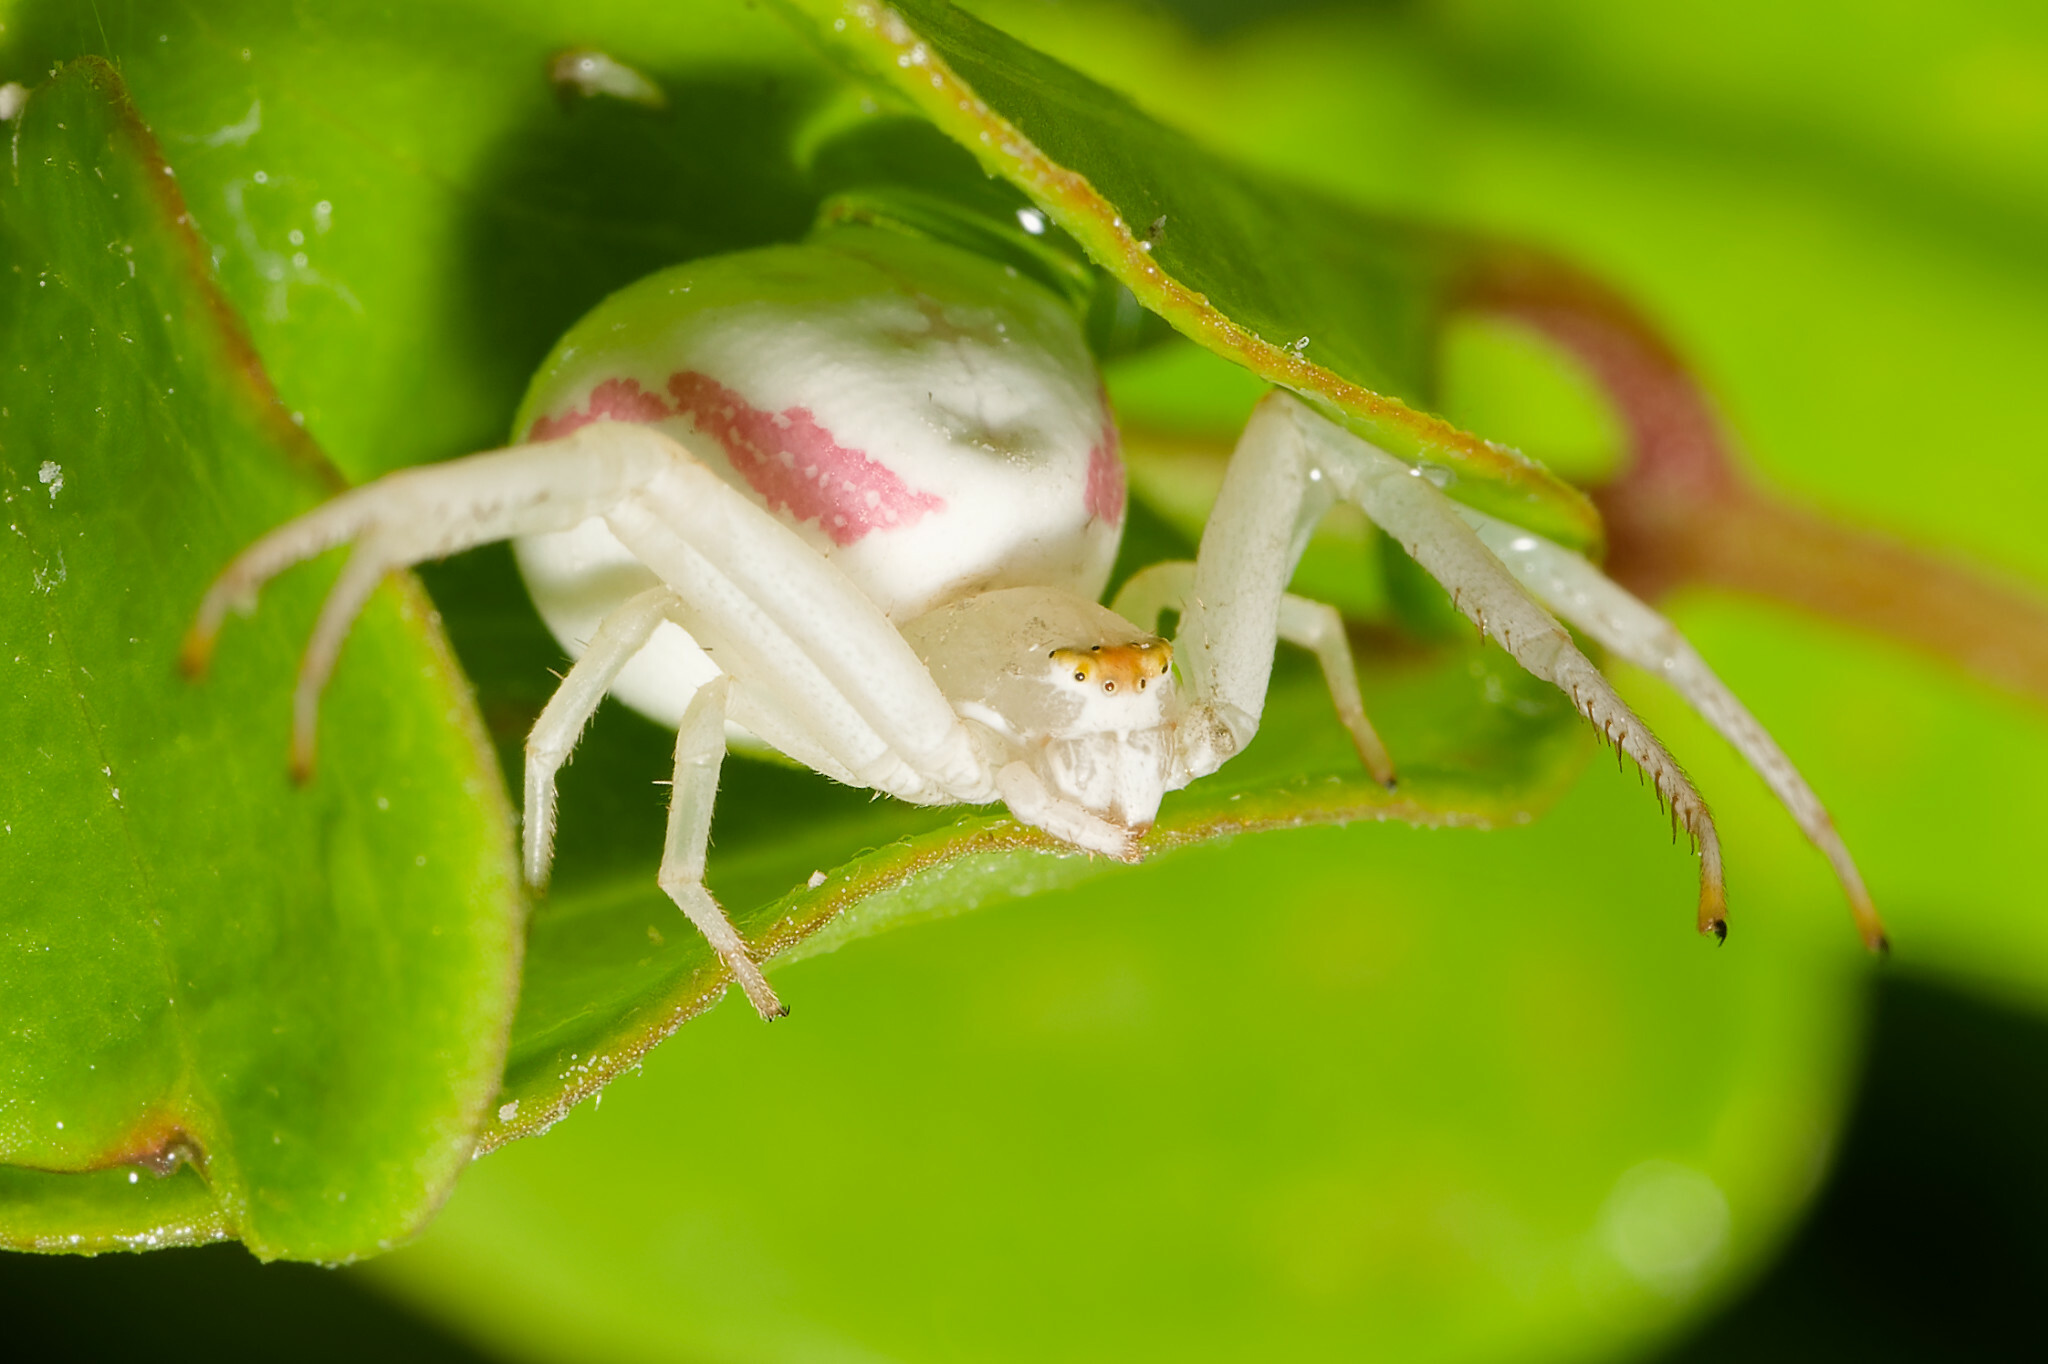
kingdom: Animalia
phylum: Arthropoda
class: Arachnida
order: Araneae
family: Thomisidae
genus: Misumena
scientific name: Misumena vatia
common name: Goldenrod crab spider
